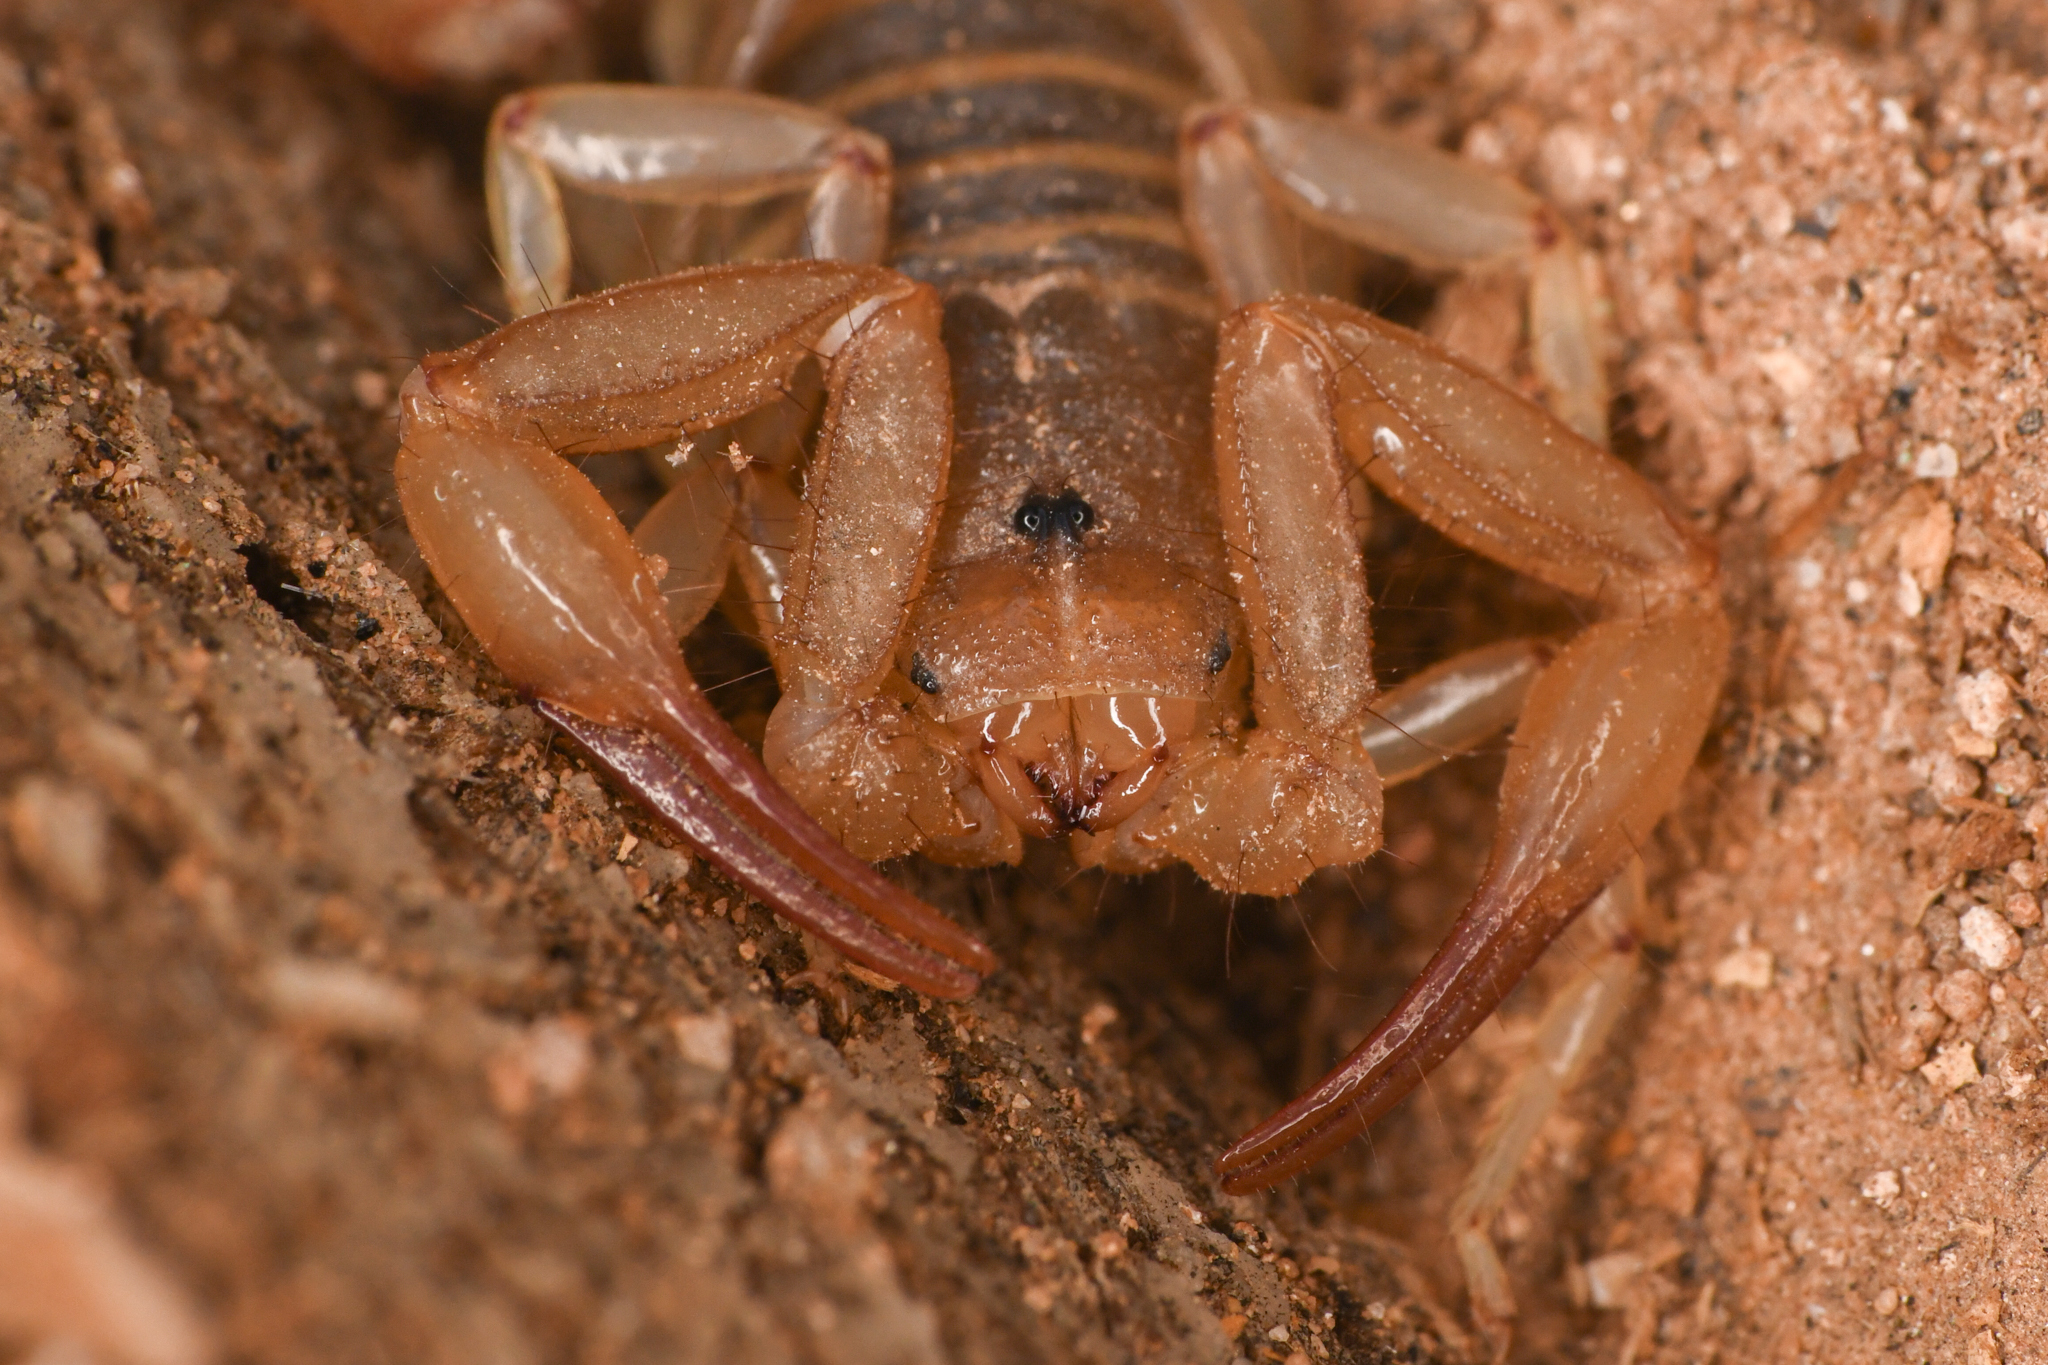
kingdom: Animalia
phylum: Arthropoda
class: Arachnida
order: Scorpiones
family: Vaejovidae
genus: Paravaejovis
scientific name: Paravaejovis confusus
